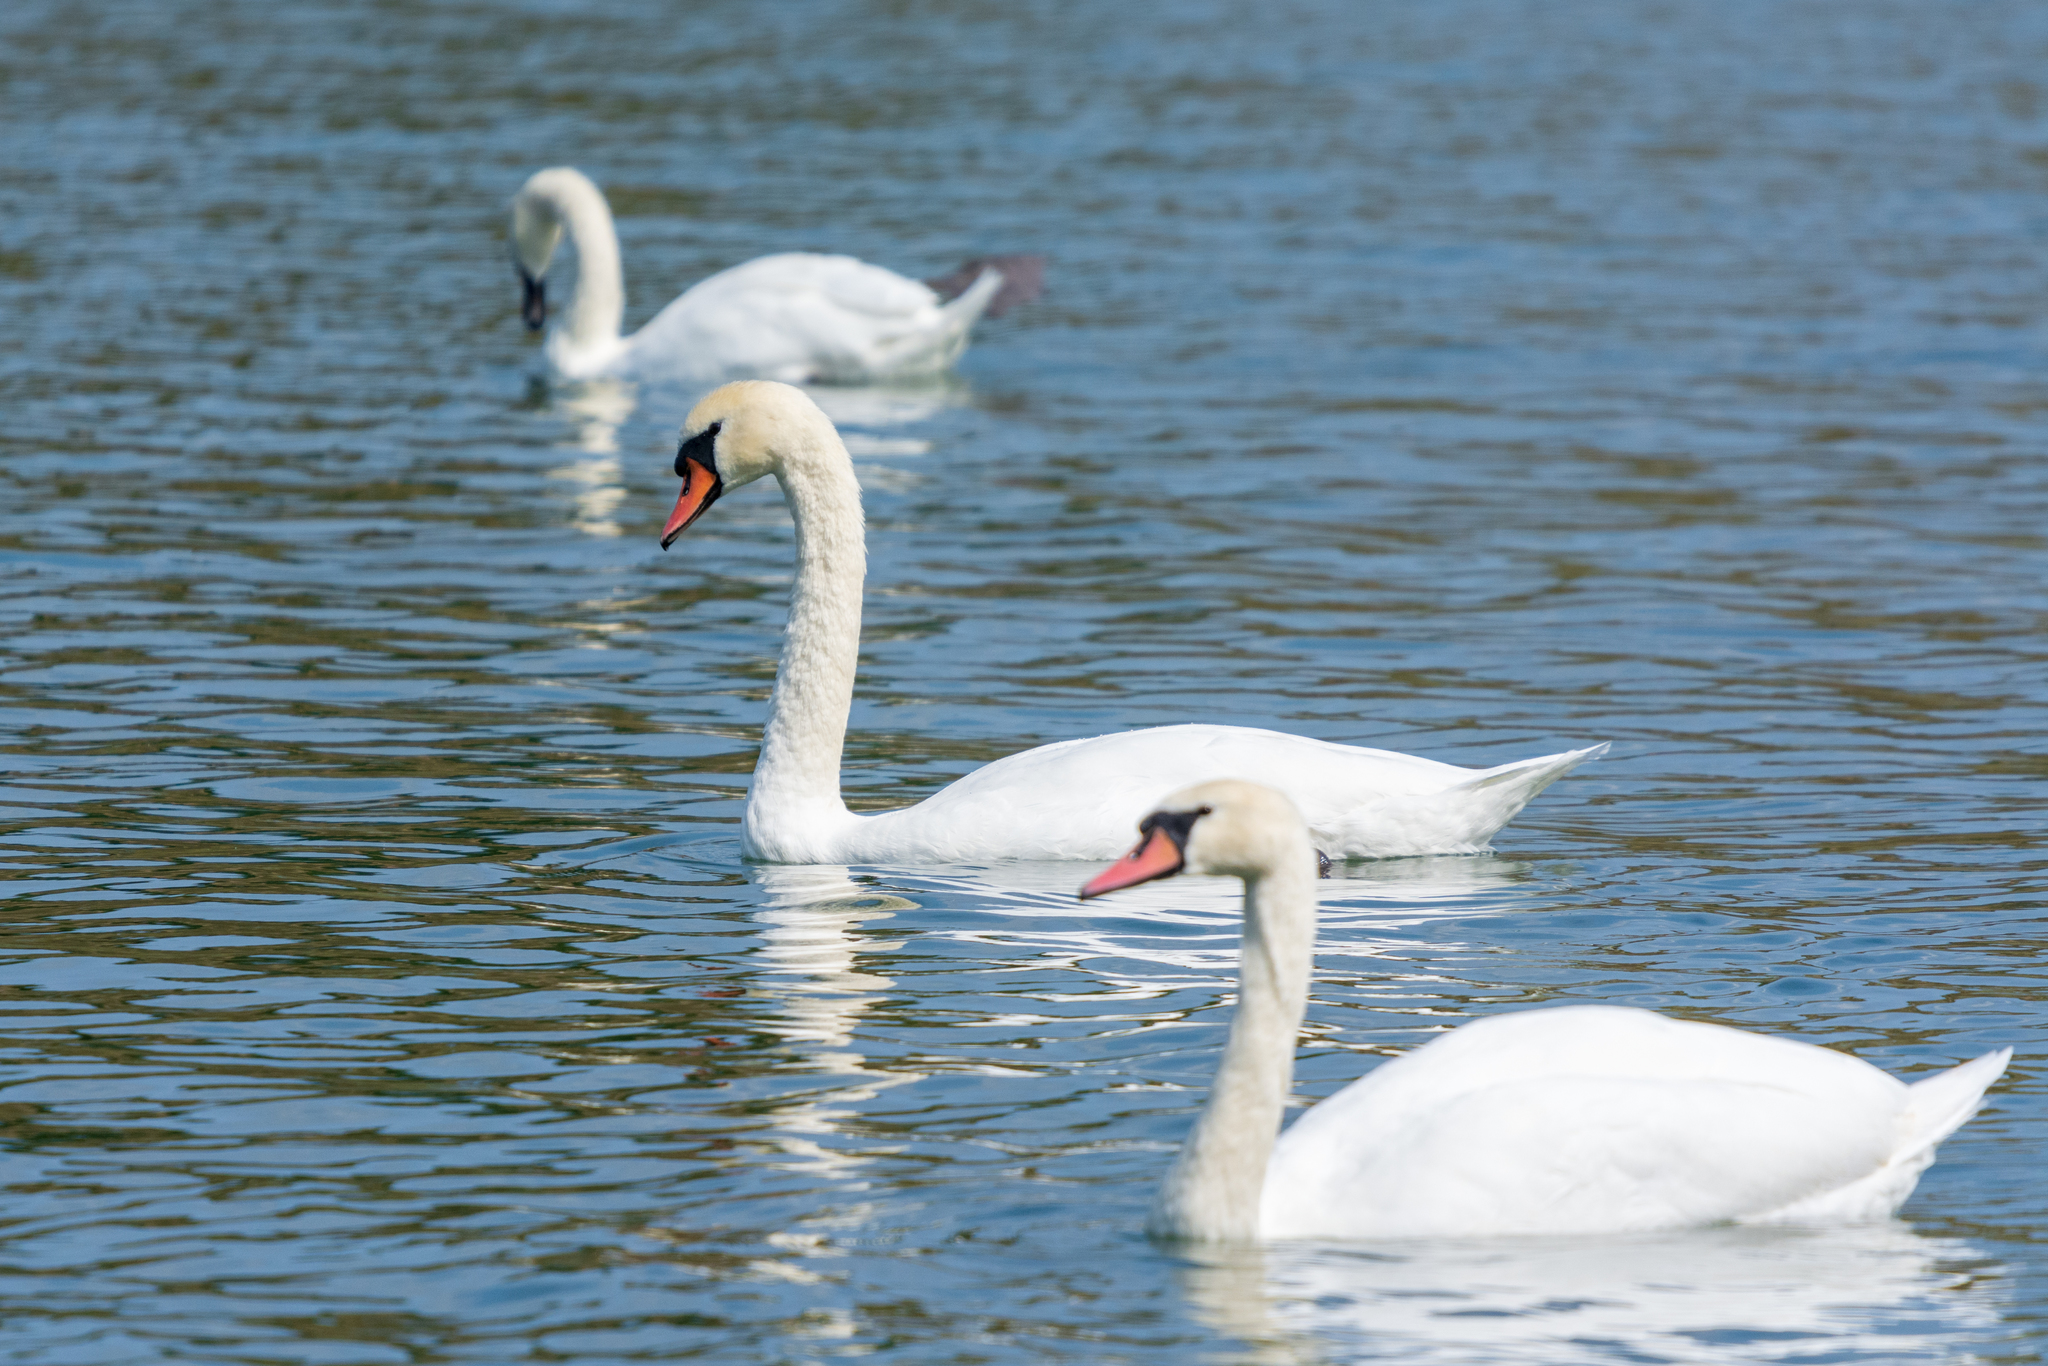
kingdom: Animalia
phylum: Chordata
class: Aves
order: Anseriformes
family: Anatidae
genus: Cygnus
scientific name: Cygnus olor
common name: Mute swan
